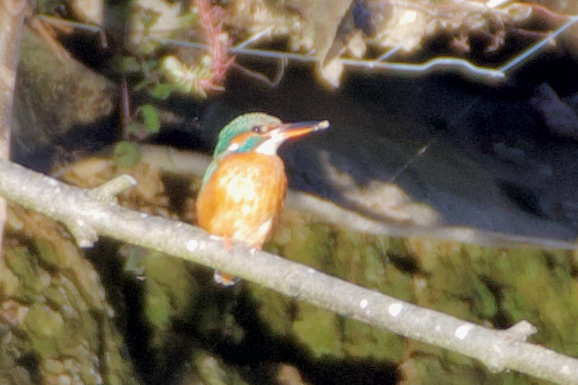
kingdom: Animalia
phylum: Chordata
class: Aves
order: Coraciiformes
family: Alcedinidae
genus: Alcedo
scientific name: Alcedo atthis
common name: Common kingfisher
